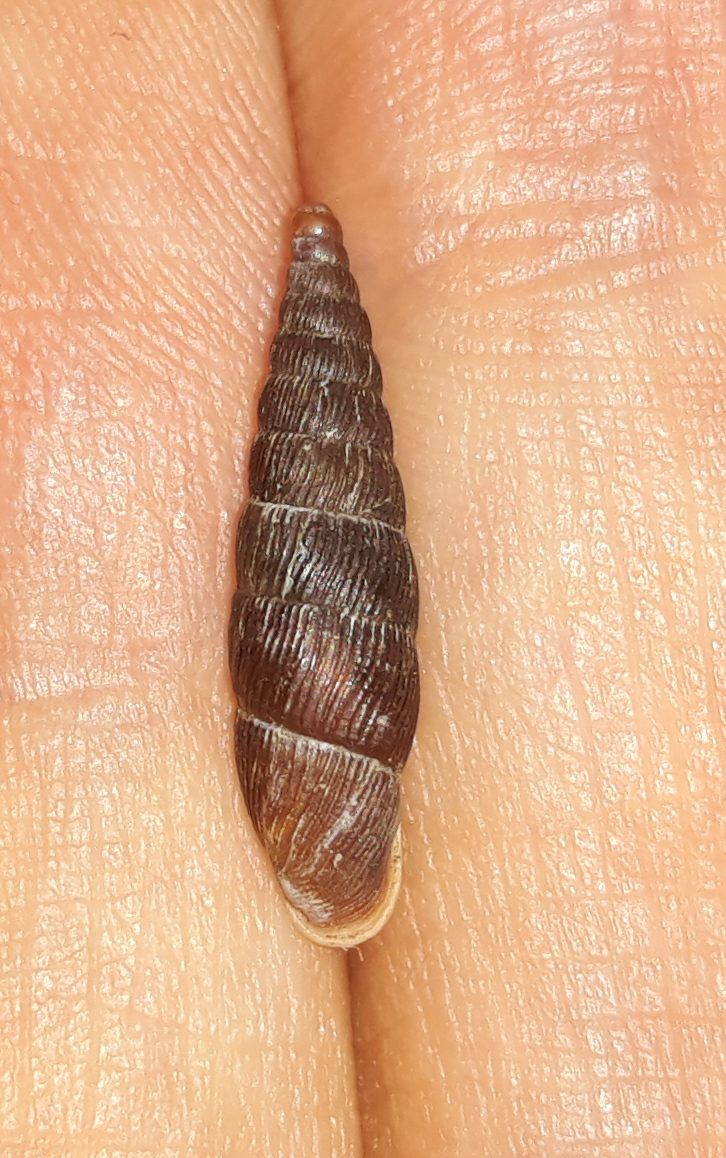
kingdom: Animalia
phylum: Mollusca
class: Gastropoda
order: Stylommatophora
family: Clausiliidae
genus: Macrogastra
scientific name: Macrogastra ventricosa
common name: Ventricose door snail
